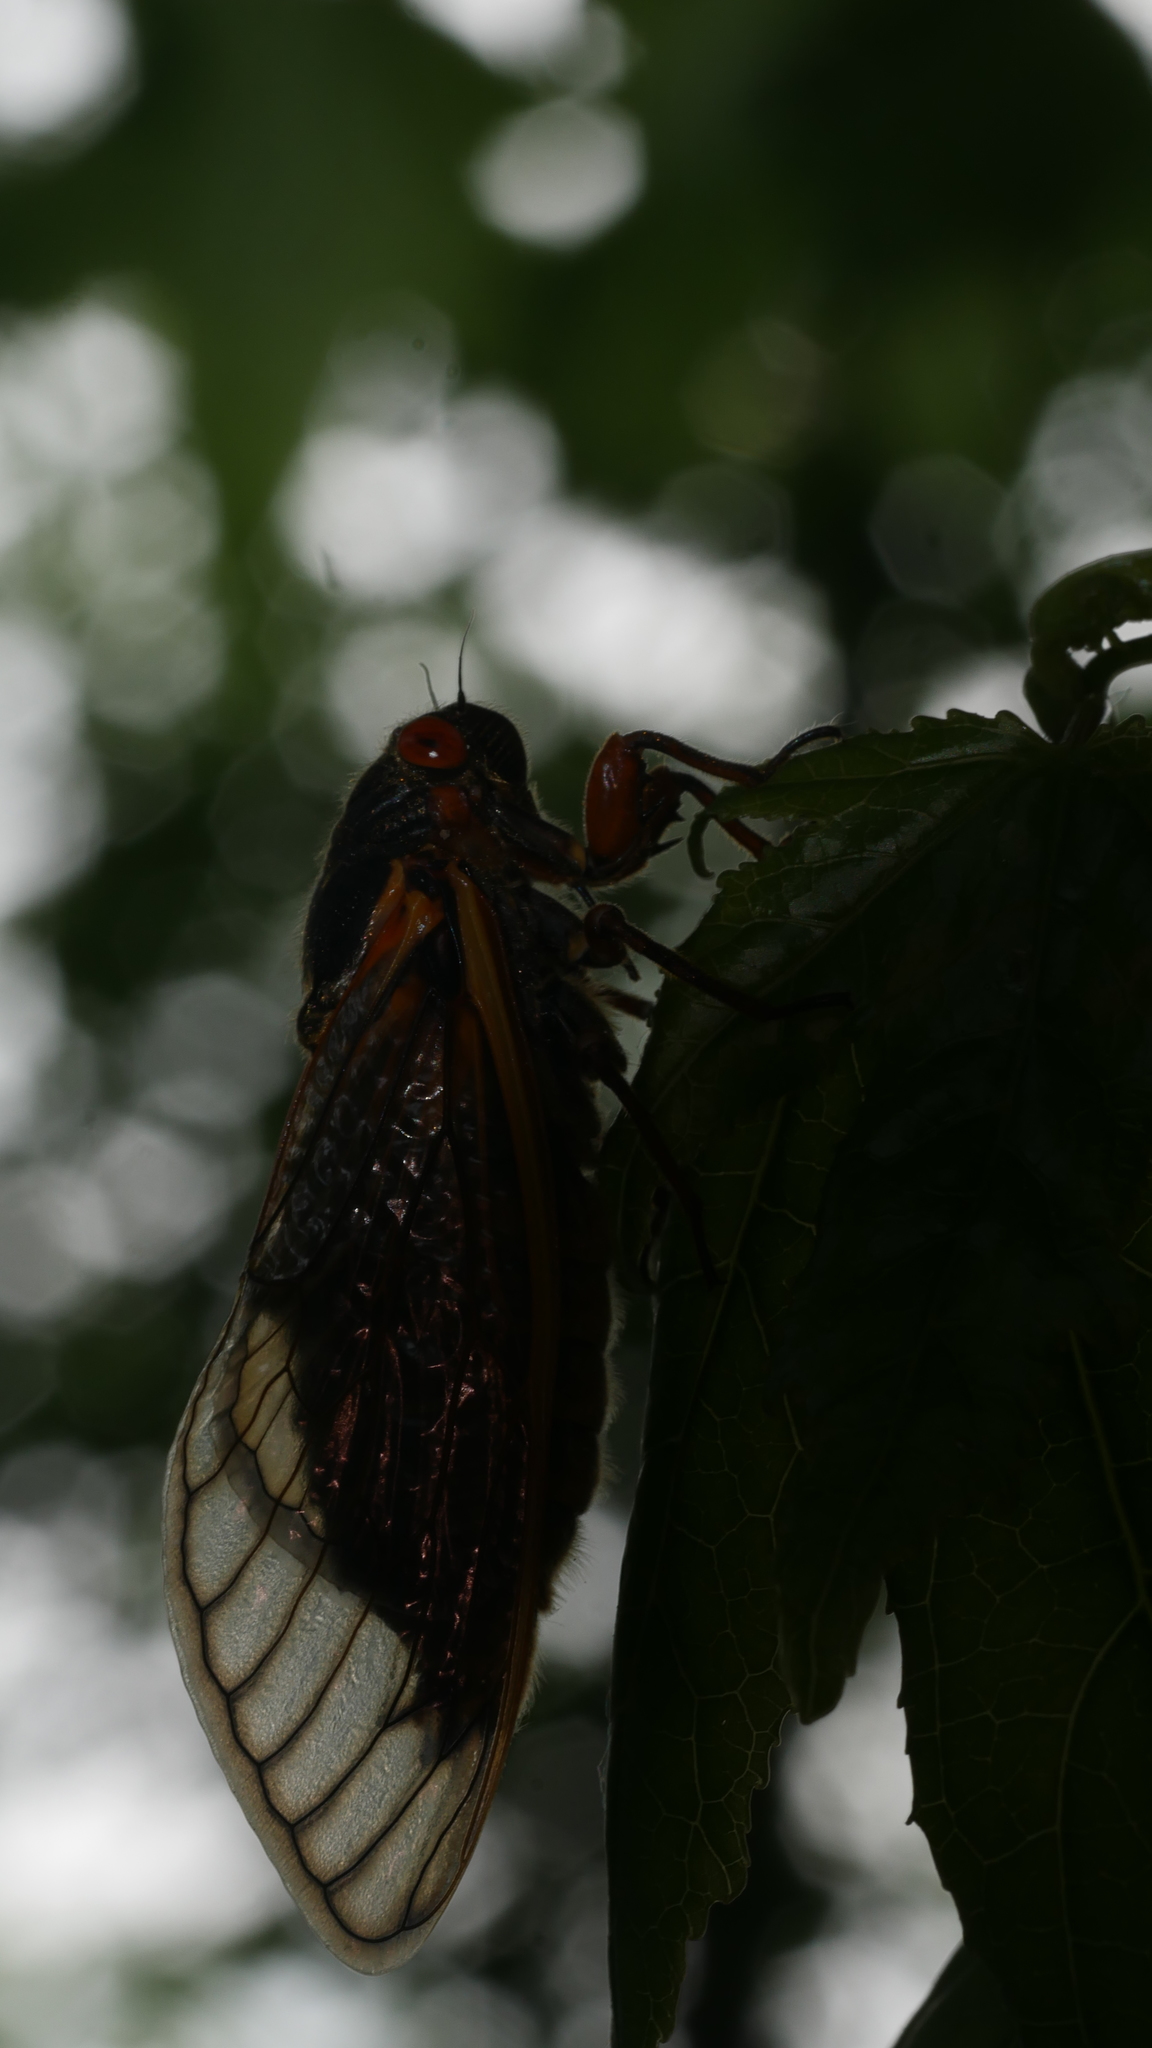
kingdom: Animalia
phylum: Arthropoda
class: Insecta
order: Hemiptera
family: Cicadidae
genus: Magicicada
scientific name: Magicicada septendecim
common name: Periodical cicada
